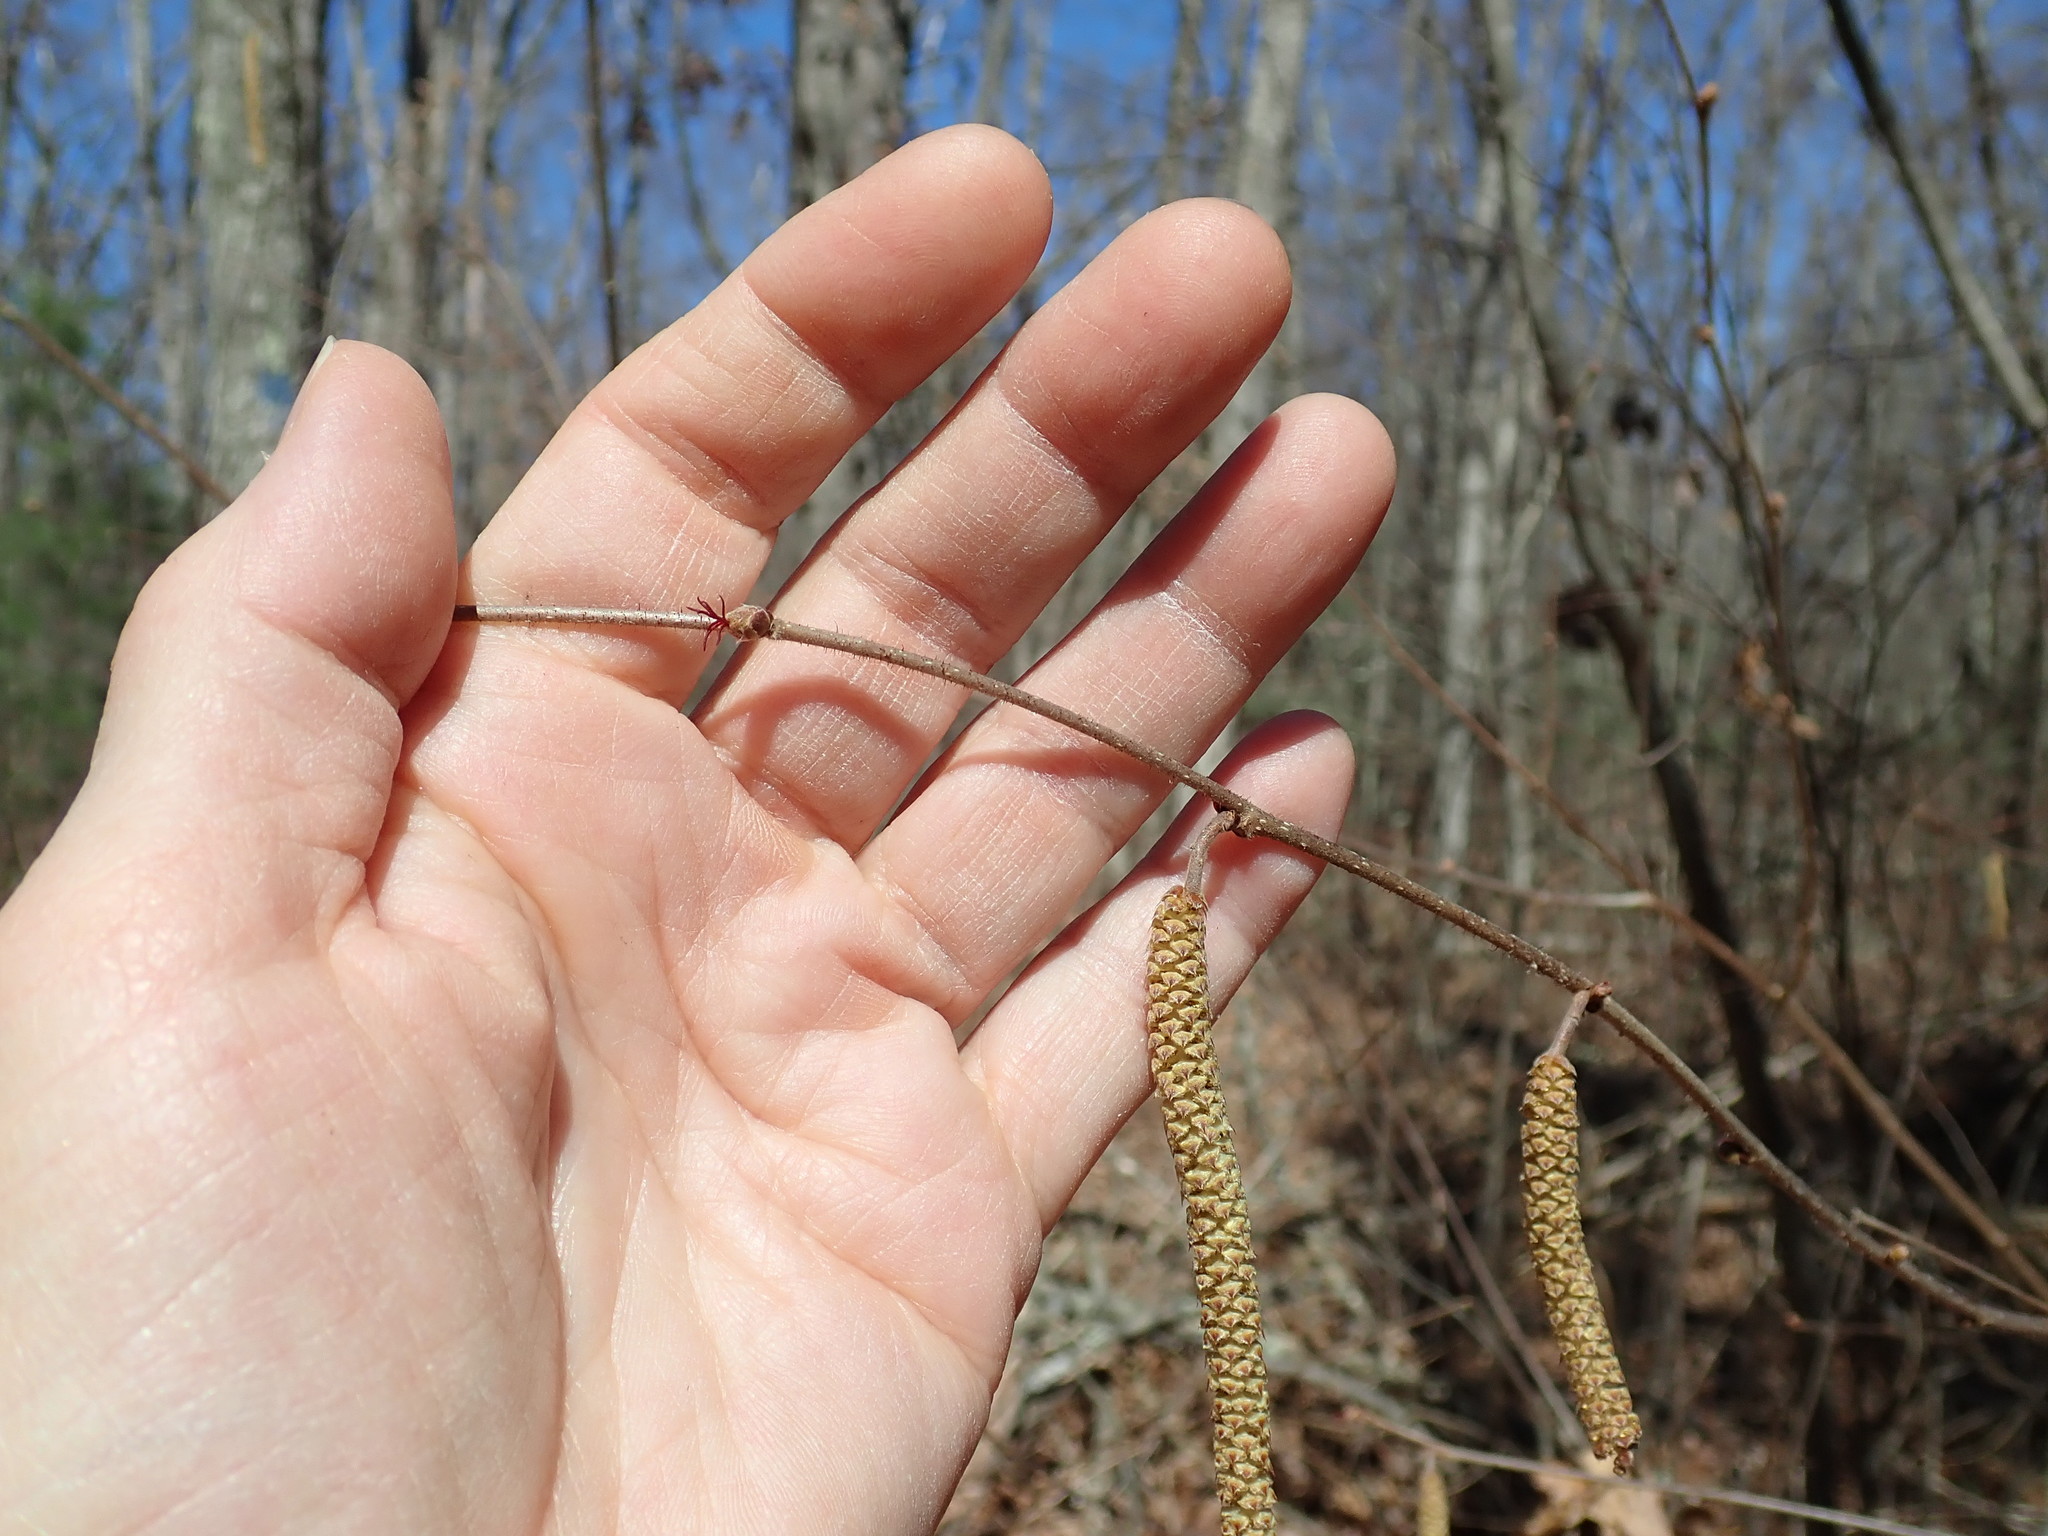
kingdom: Plantae
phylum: Tracheophyta
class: Magnoliopsida
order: Fagales
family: Betulaceae
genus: Corylus
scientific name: Corylus americana
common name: American hazel
